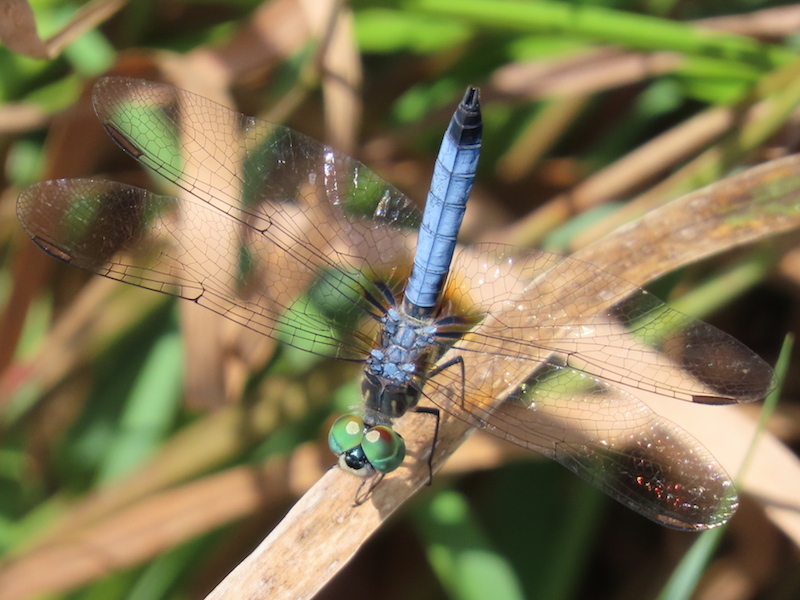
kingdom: Animalia
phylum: Arthropoda
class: Insecta
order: Odonata
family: Libellulidae
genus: Pachydiplax
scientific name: Pachydiplax longipennis
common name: Blue dasher
